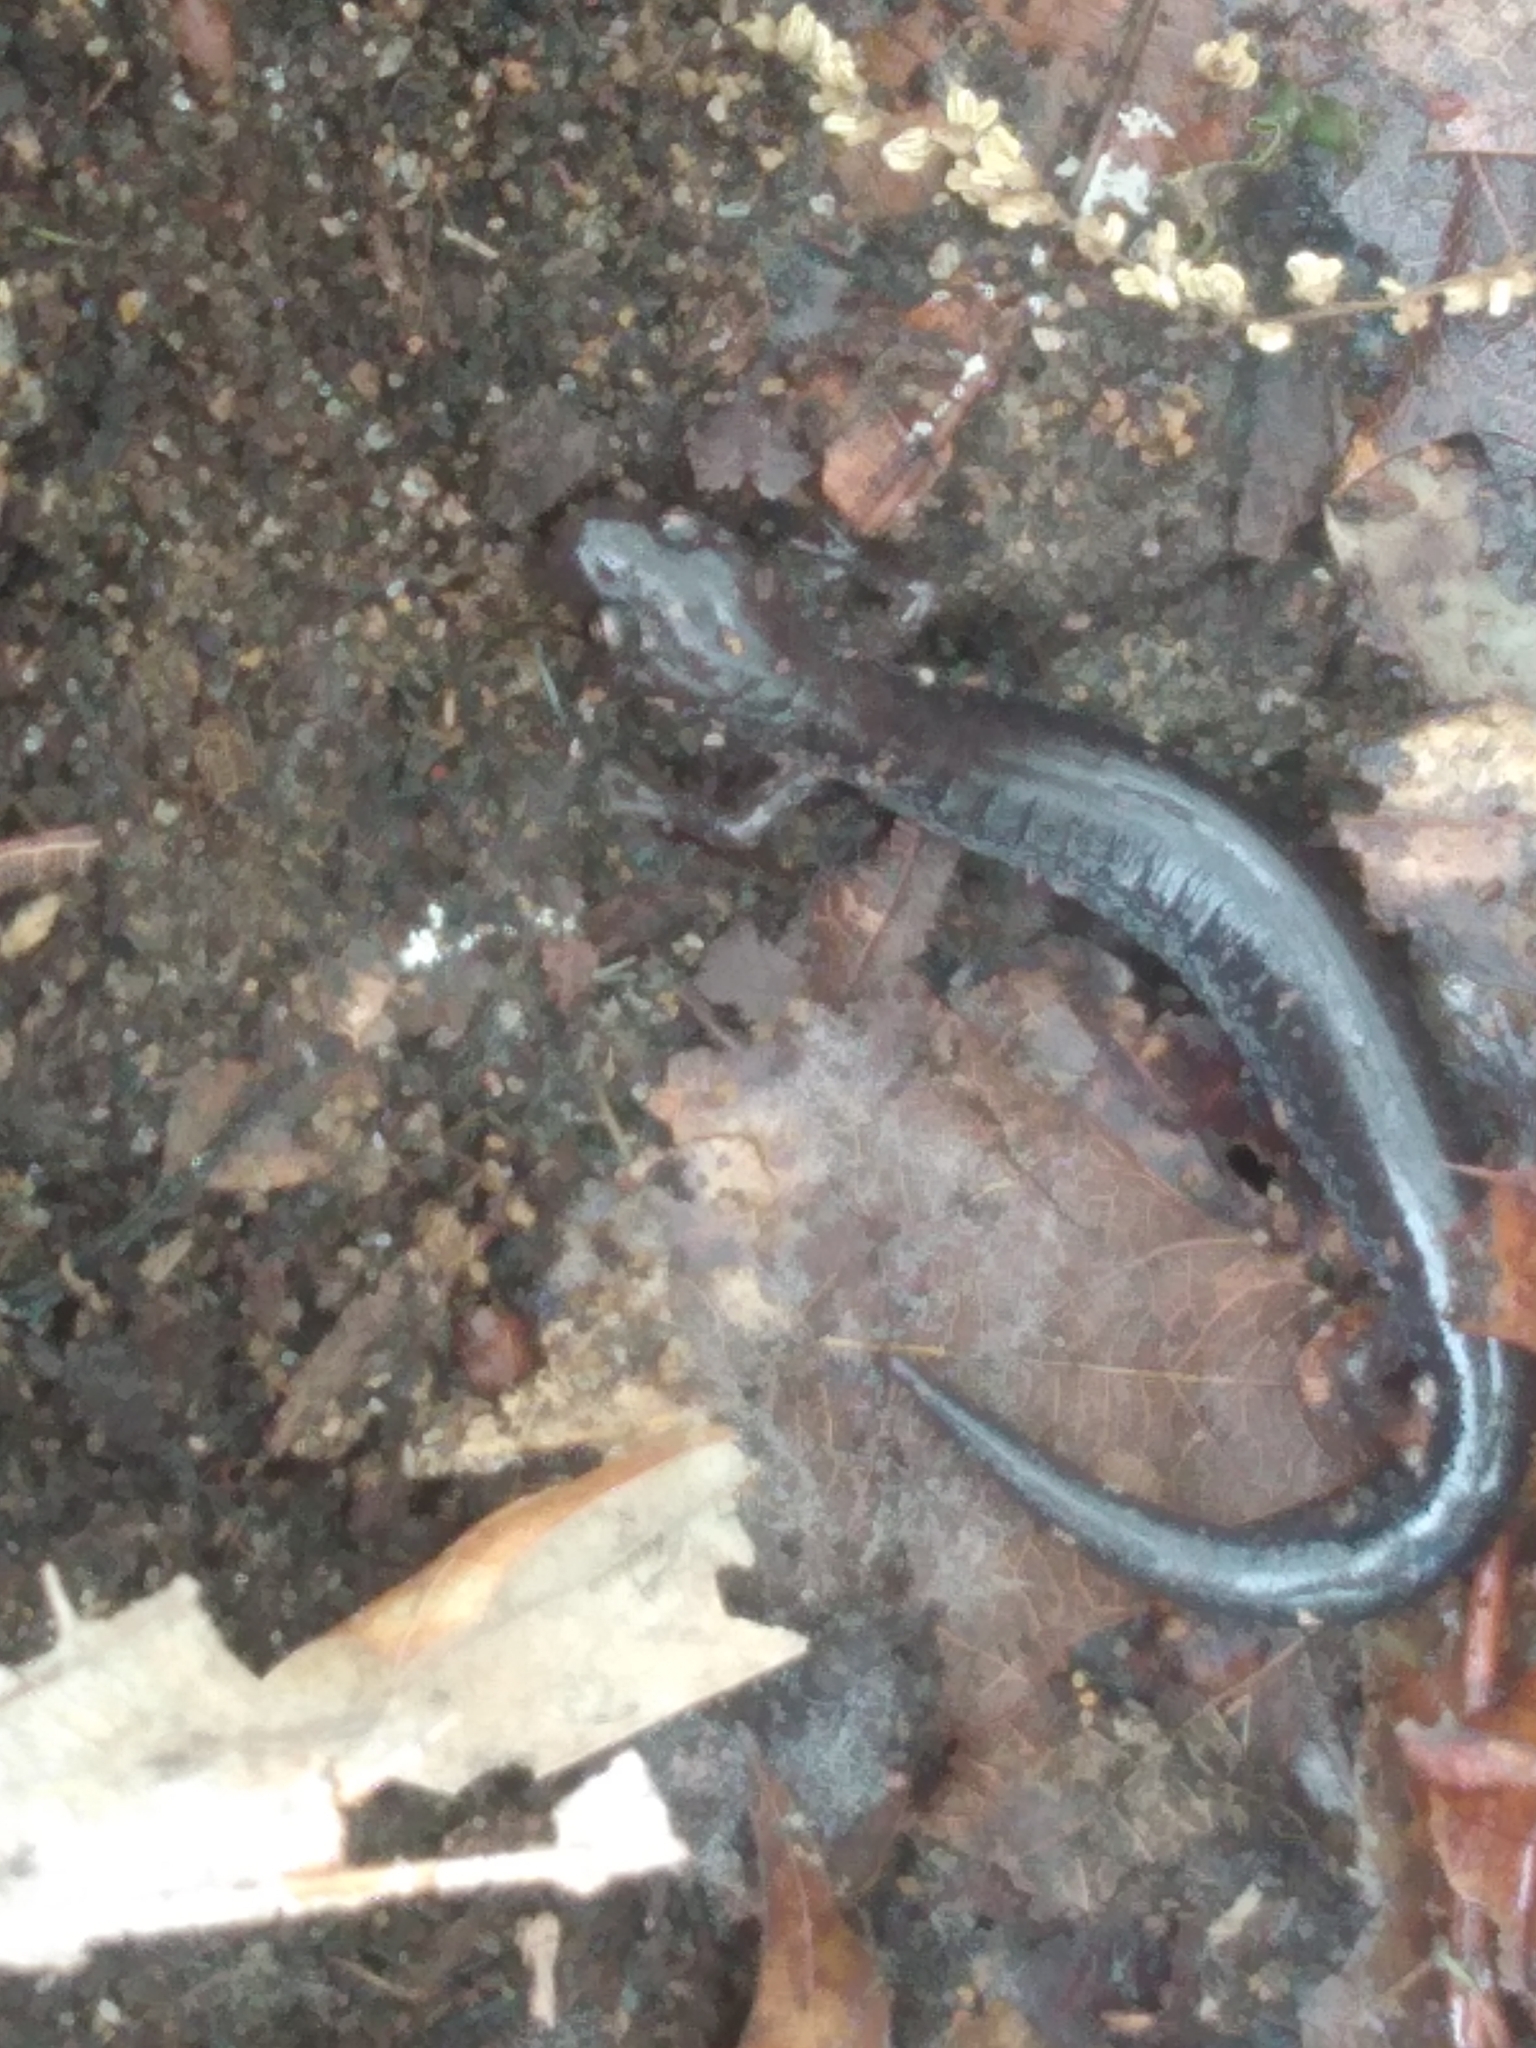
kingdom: Animalia
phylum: Chordata
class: Amphibia
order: Caudata
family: Plethodontidae
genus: Plethodon
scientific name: Plethodon cinereus
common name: Redback salamander
